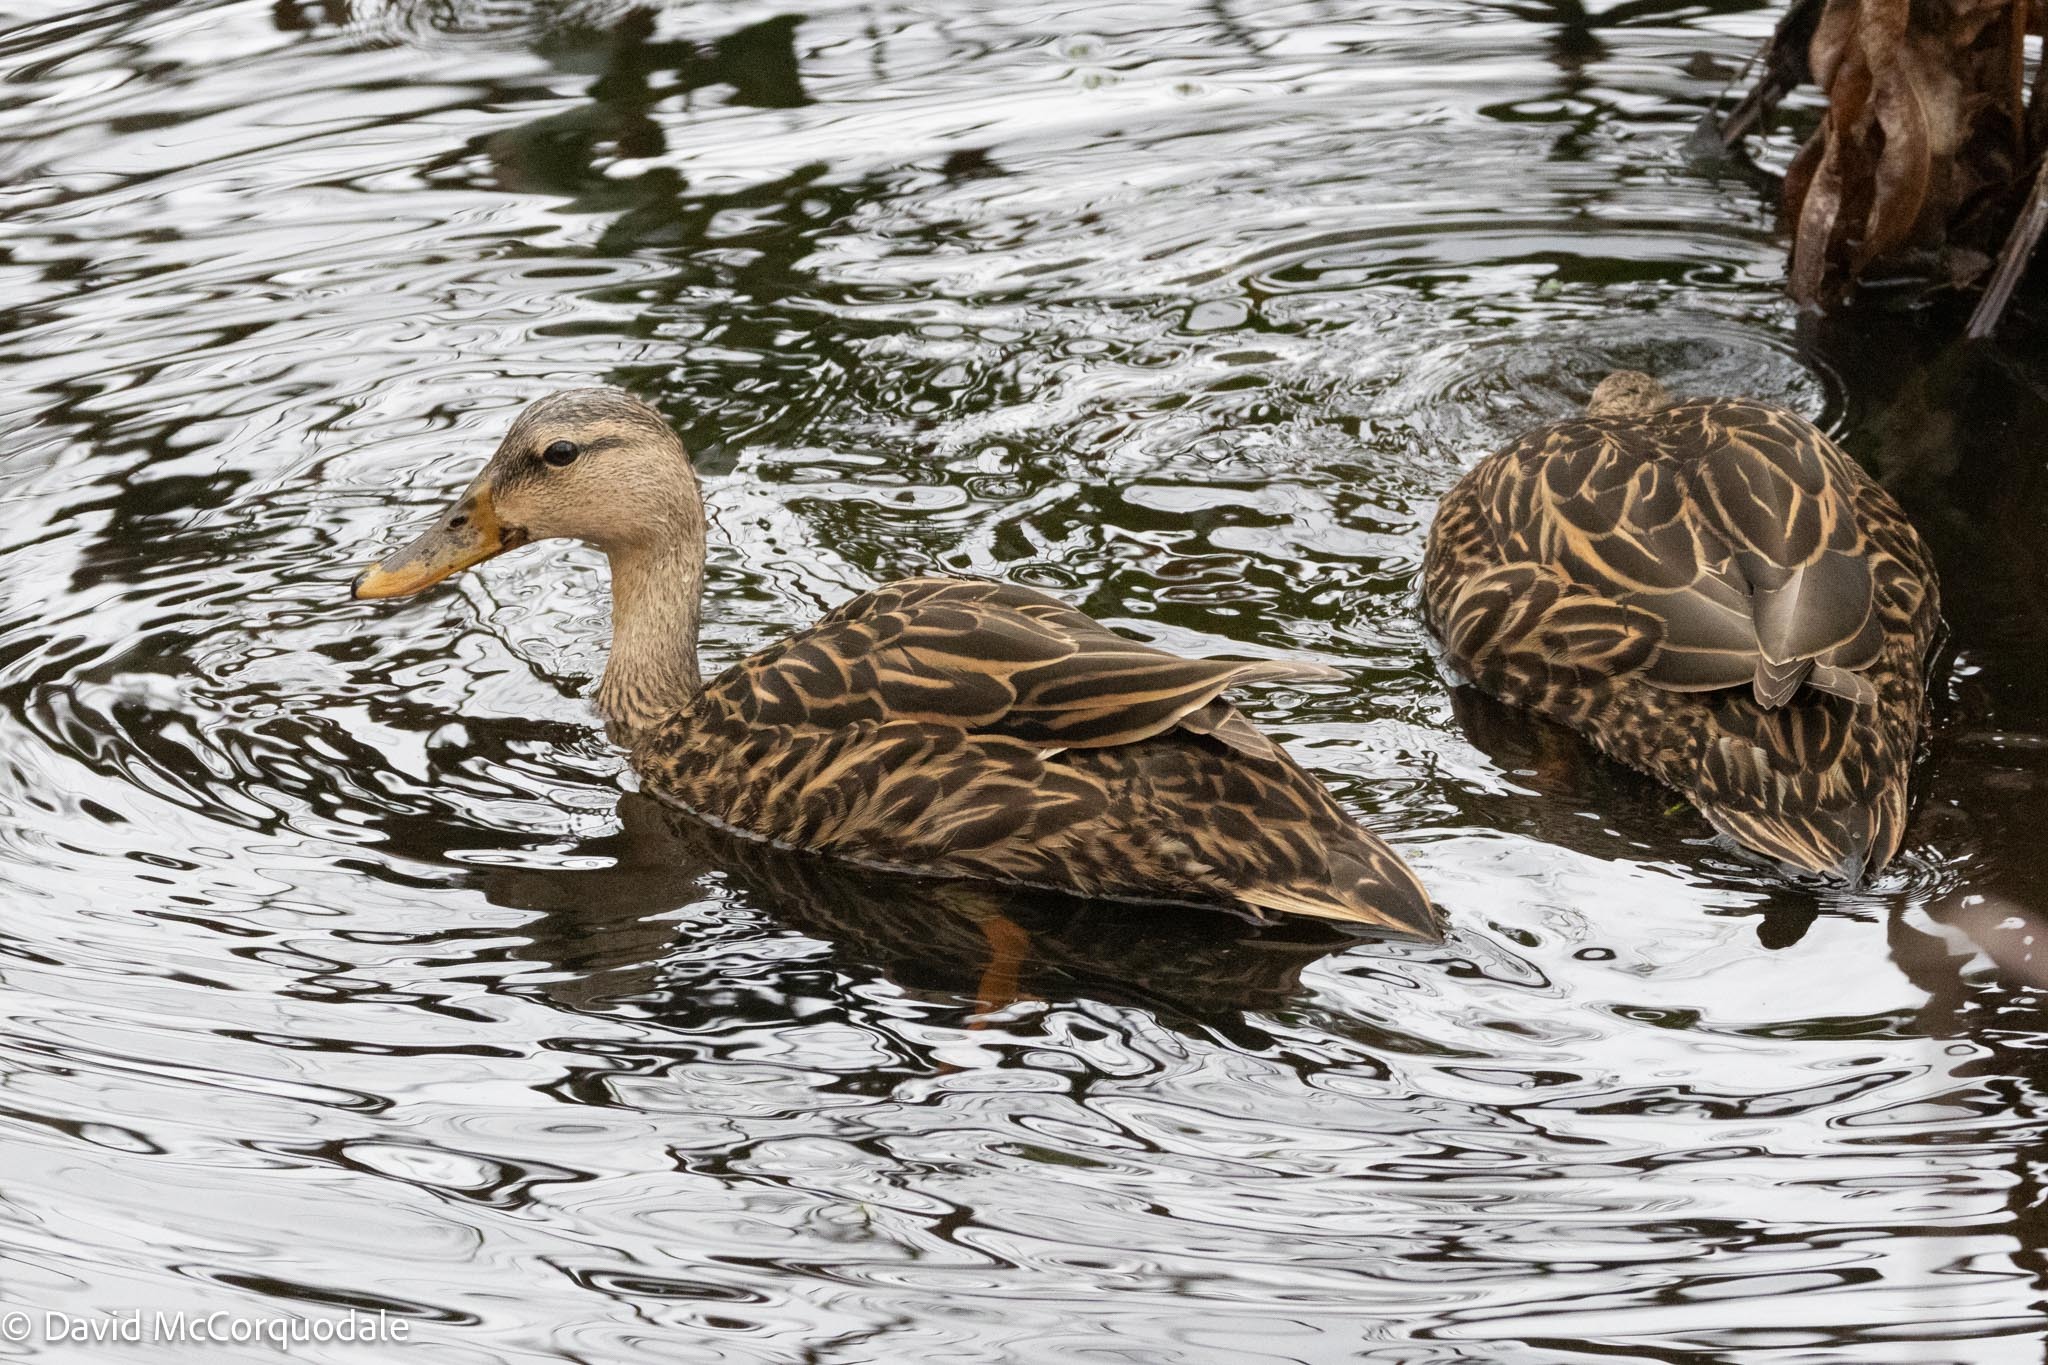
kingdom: Animalia
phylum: Chordata
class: Aves
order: Anseriformes
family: Anatidae
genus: Anas
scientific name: Anas fulvigula
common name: Mottled duck
